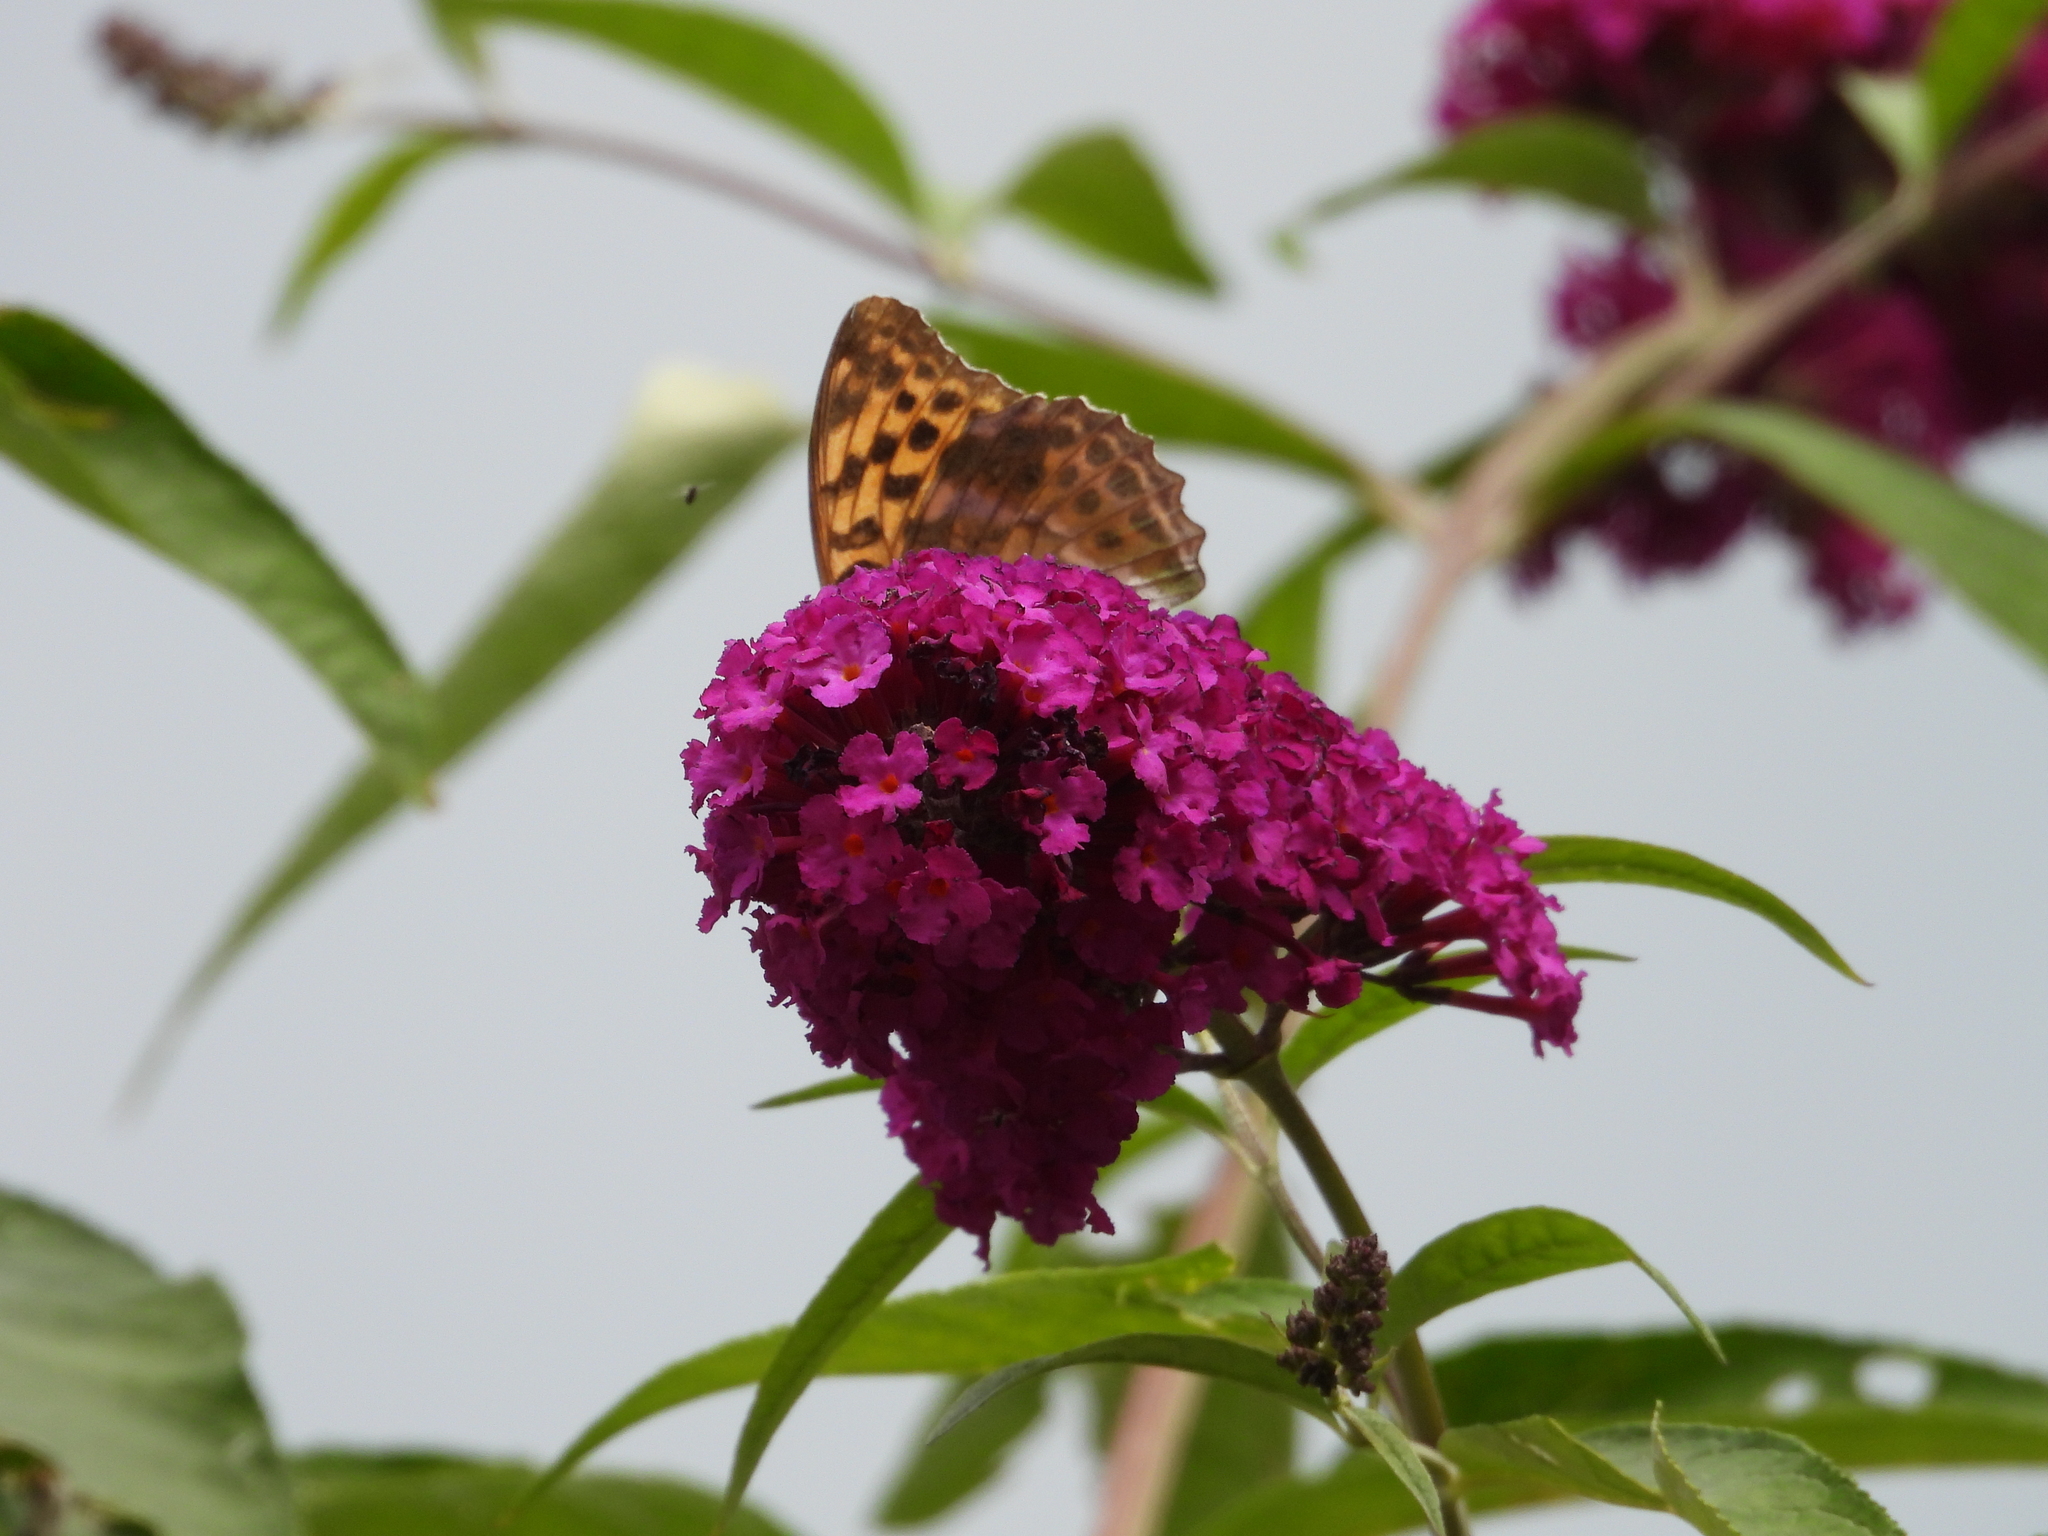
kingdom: Animalia
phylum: Arthropoda
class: Insecta
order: Lepidoptera
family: Nymphalidae
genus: Argynnis
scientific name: Argynnis paphia
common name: Silver-washed fritillary
